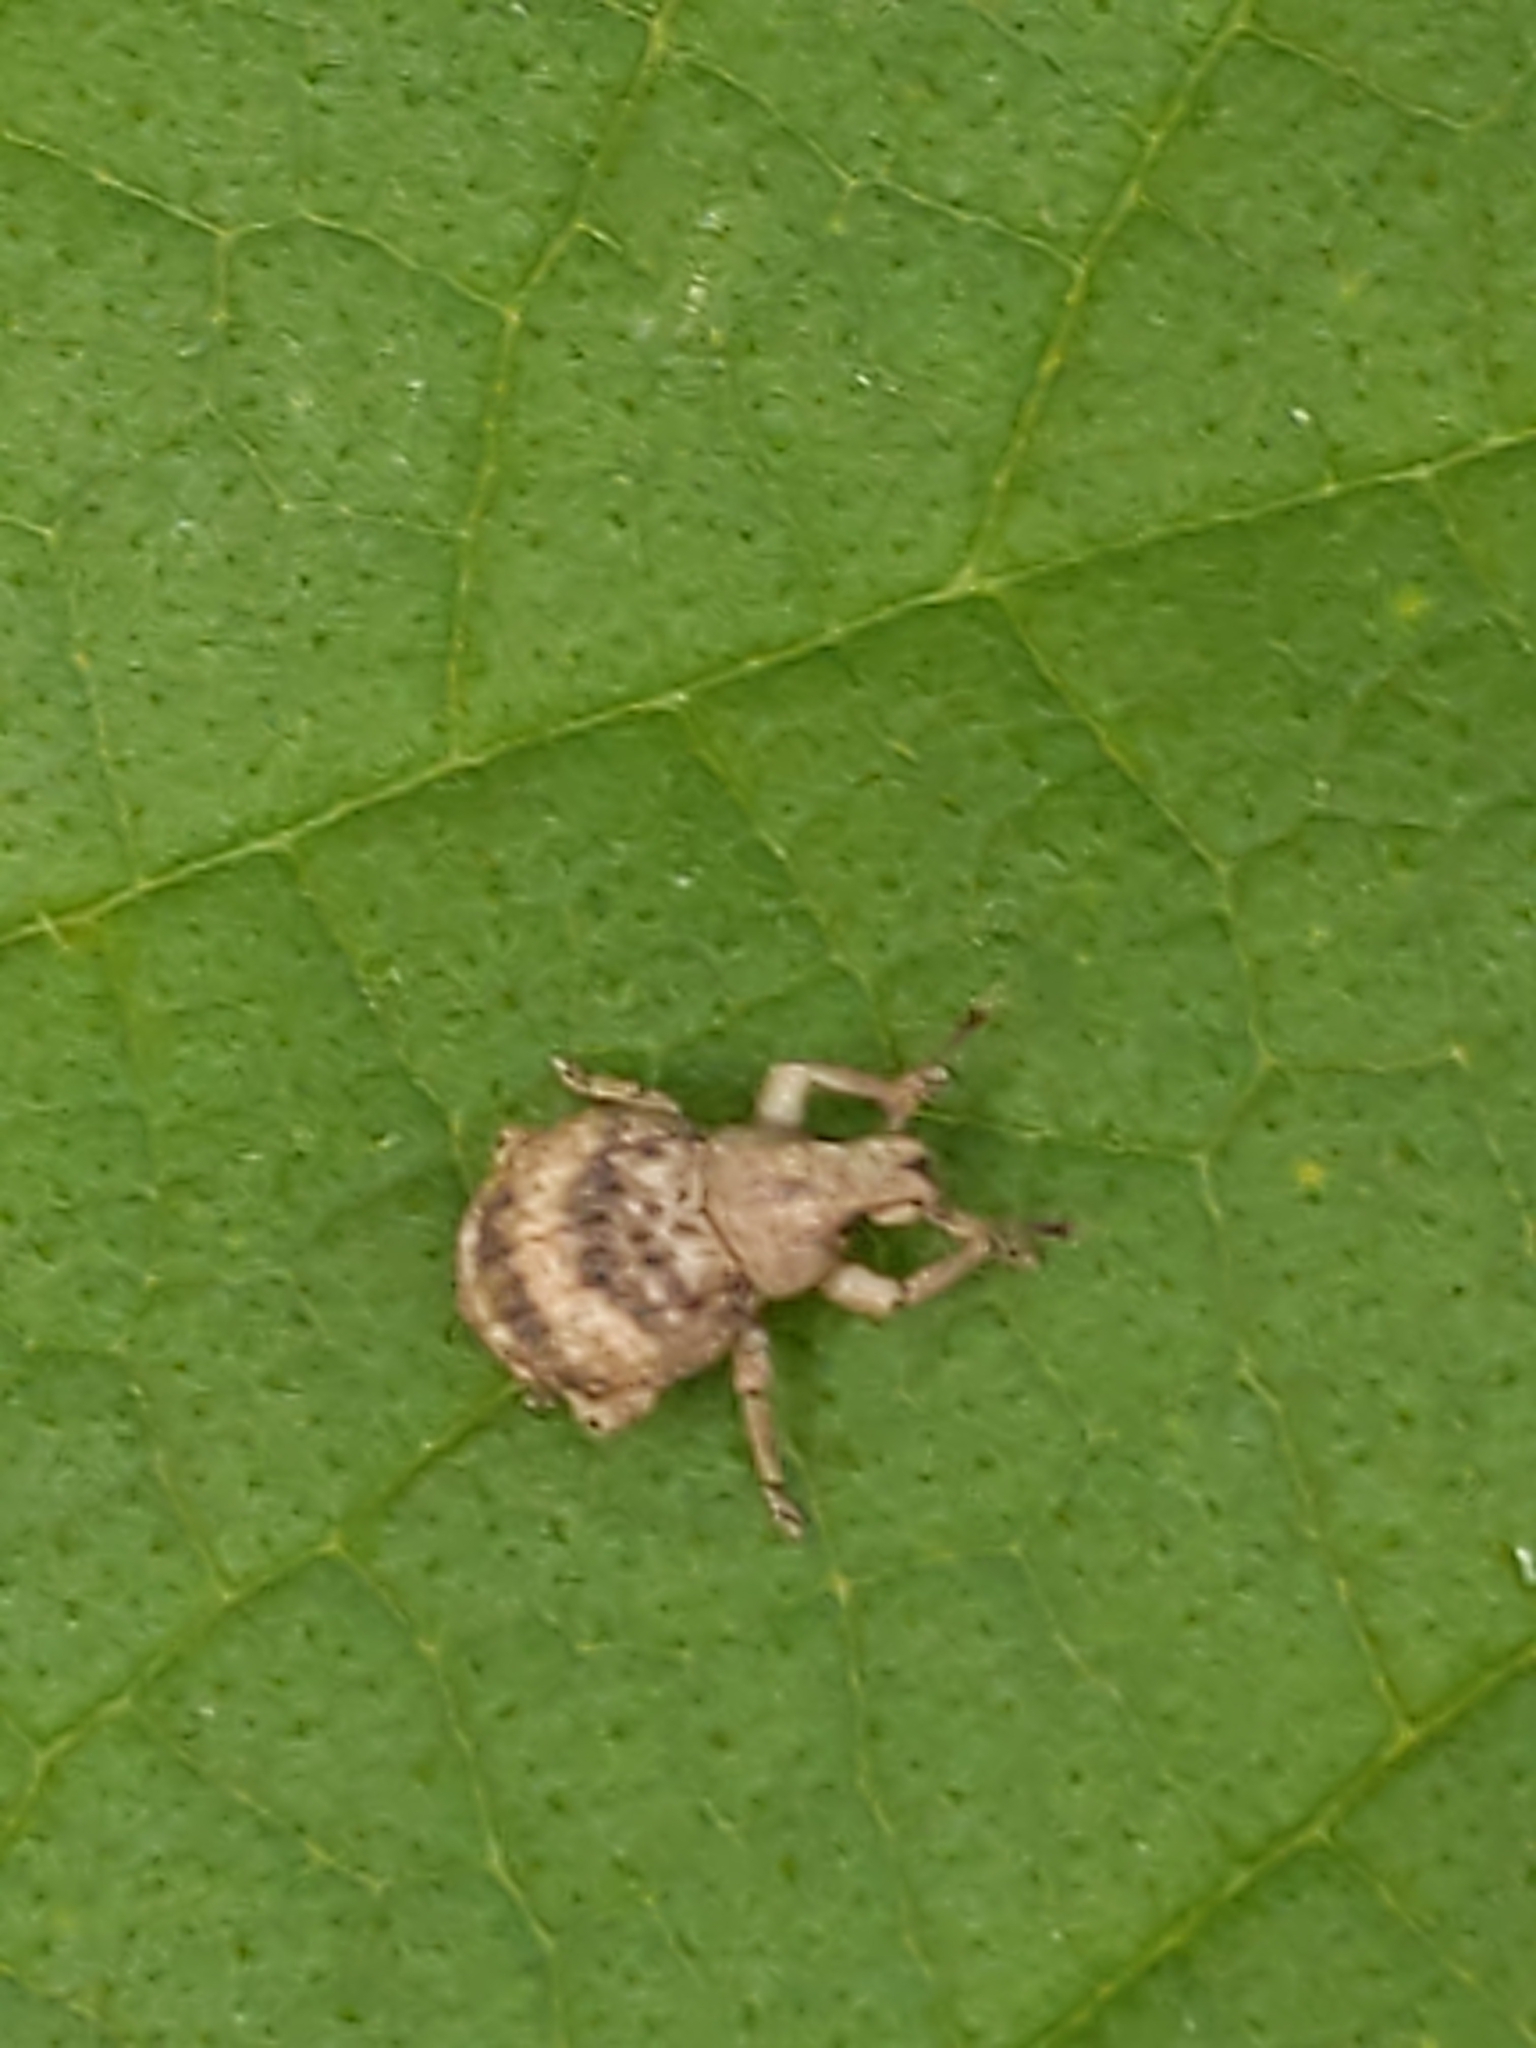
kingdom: Animalia
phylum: Arthropoda
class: Insecta
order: Coleoptera
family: Curculionidae
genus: Pseudocneorhinus
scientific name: Pseudocneorhinus bifasciatus
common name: Two-banded japanese weevil
